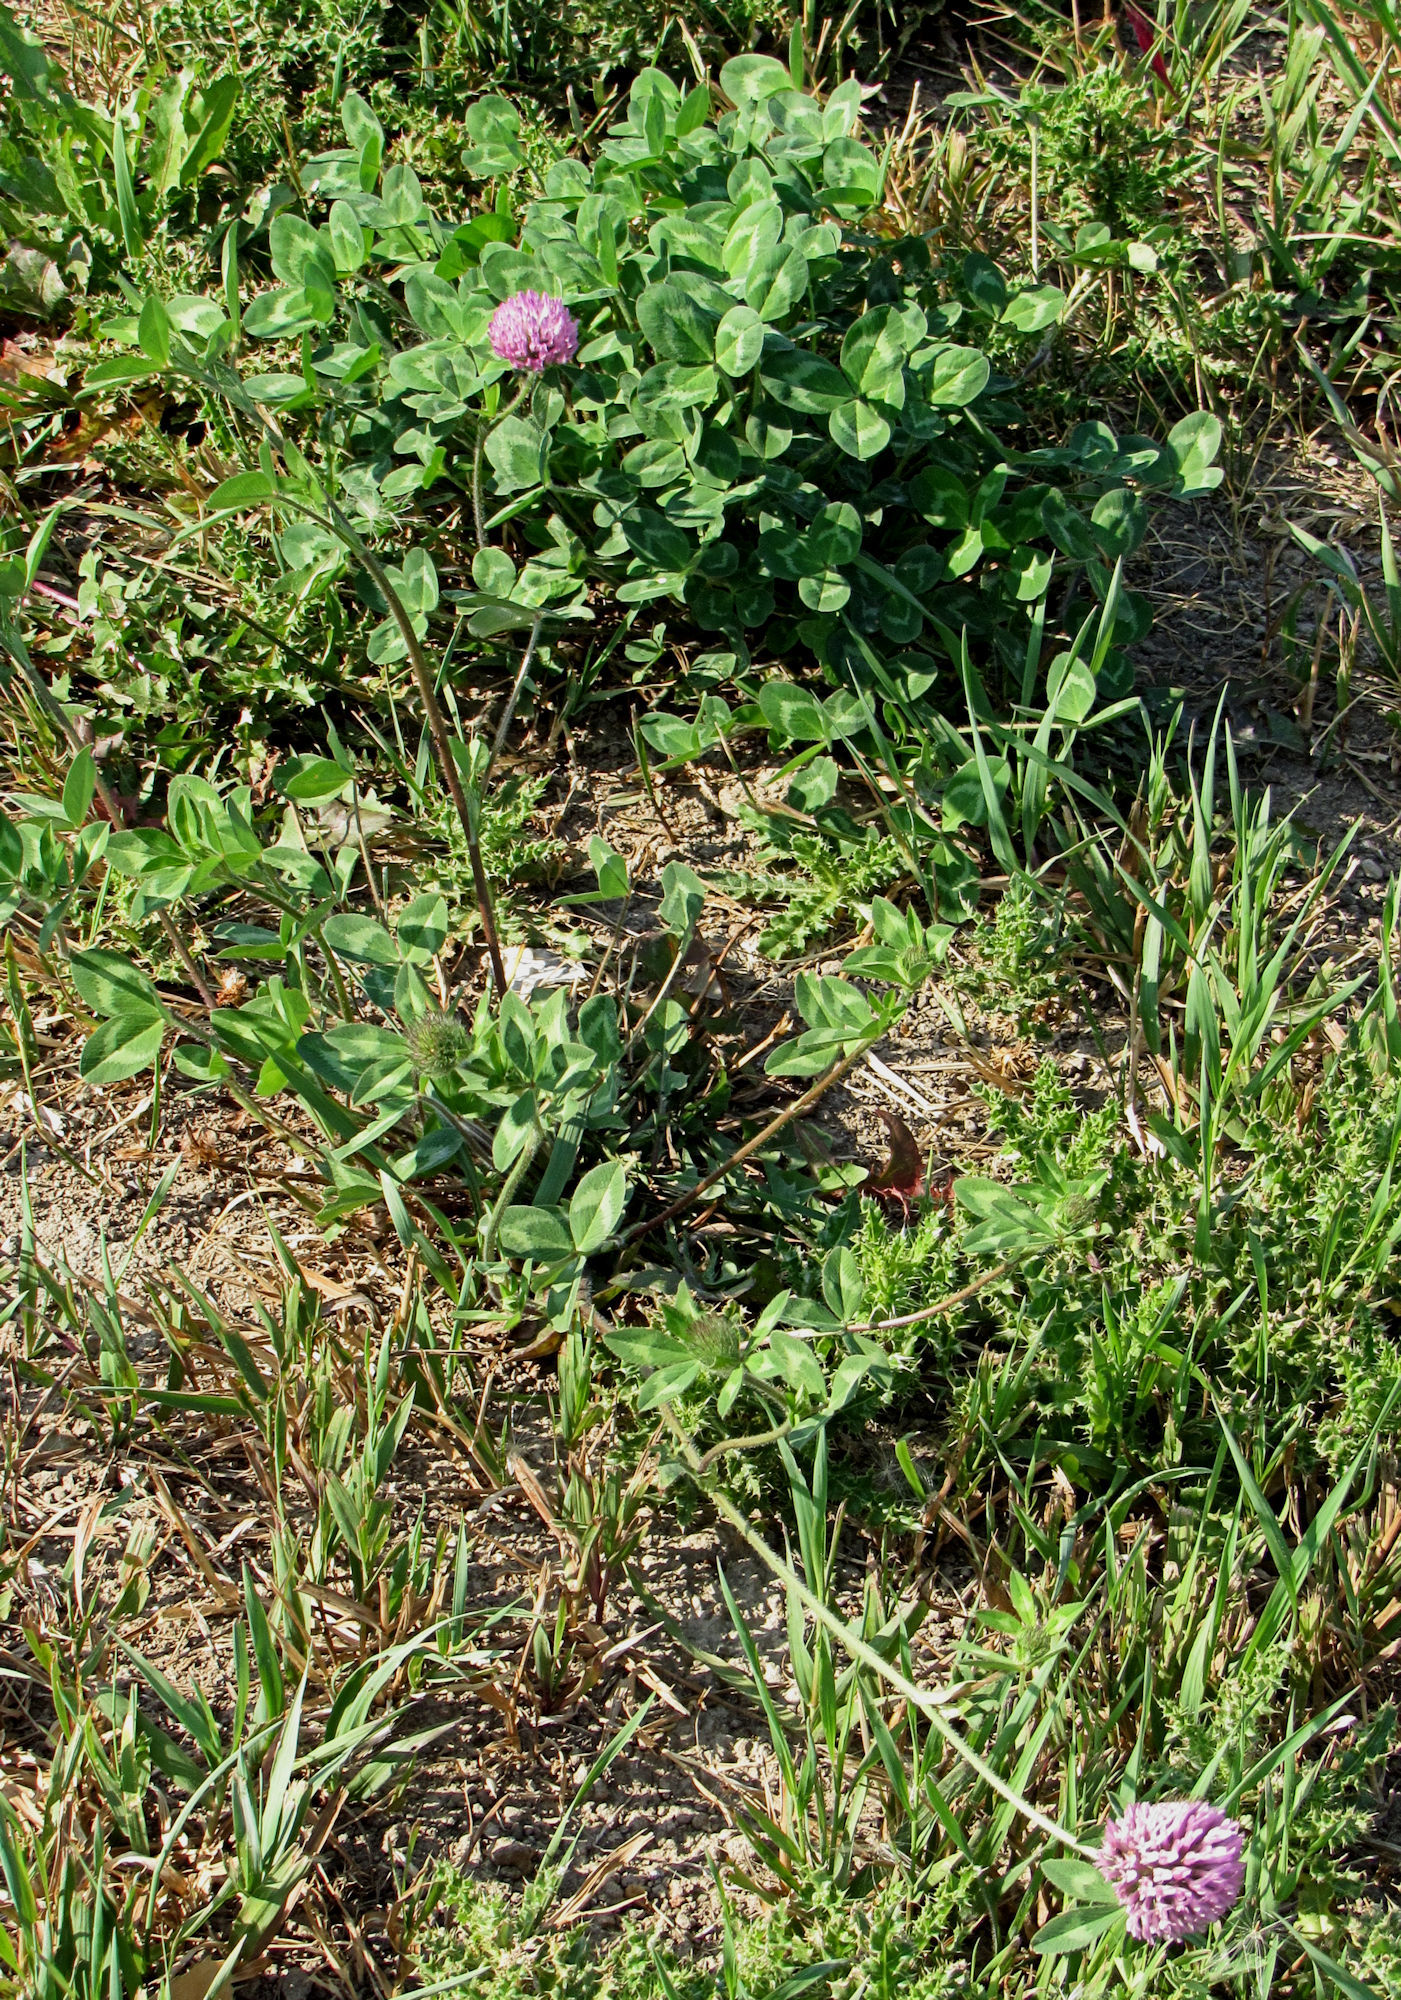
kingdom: Plantae
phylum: Tracheophyta
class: Magnoliopsida
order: Fabales
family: Fabaceae
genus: Trifolium
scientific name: Trifolium pratense
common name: Red clover
